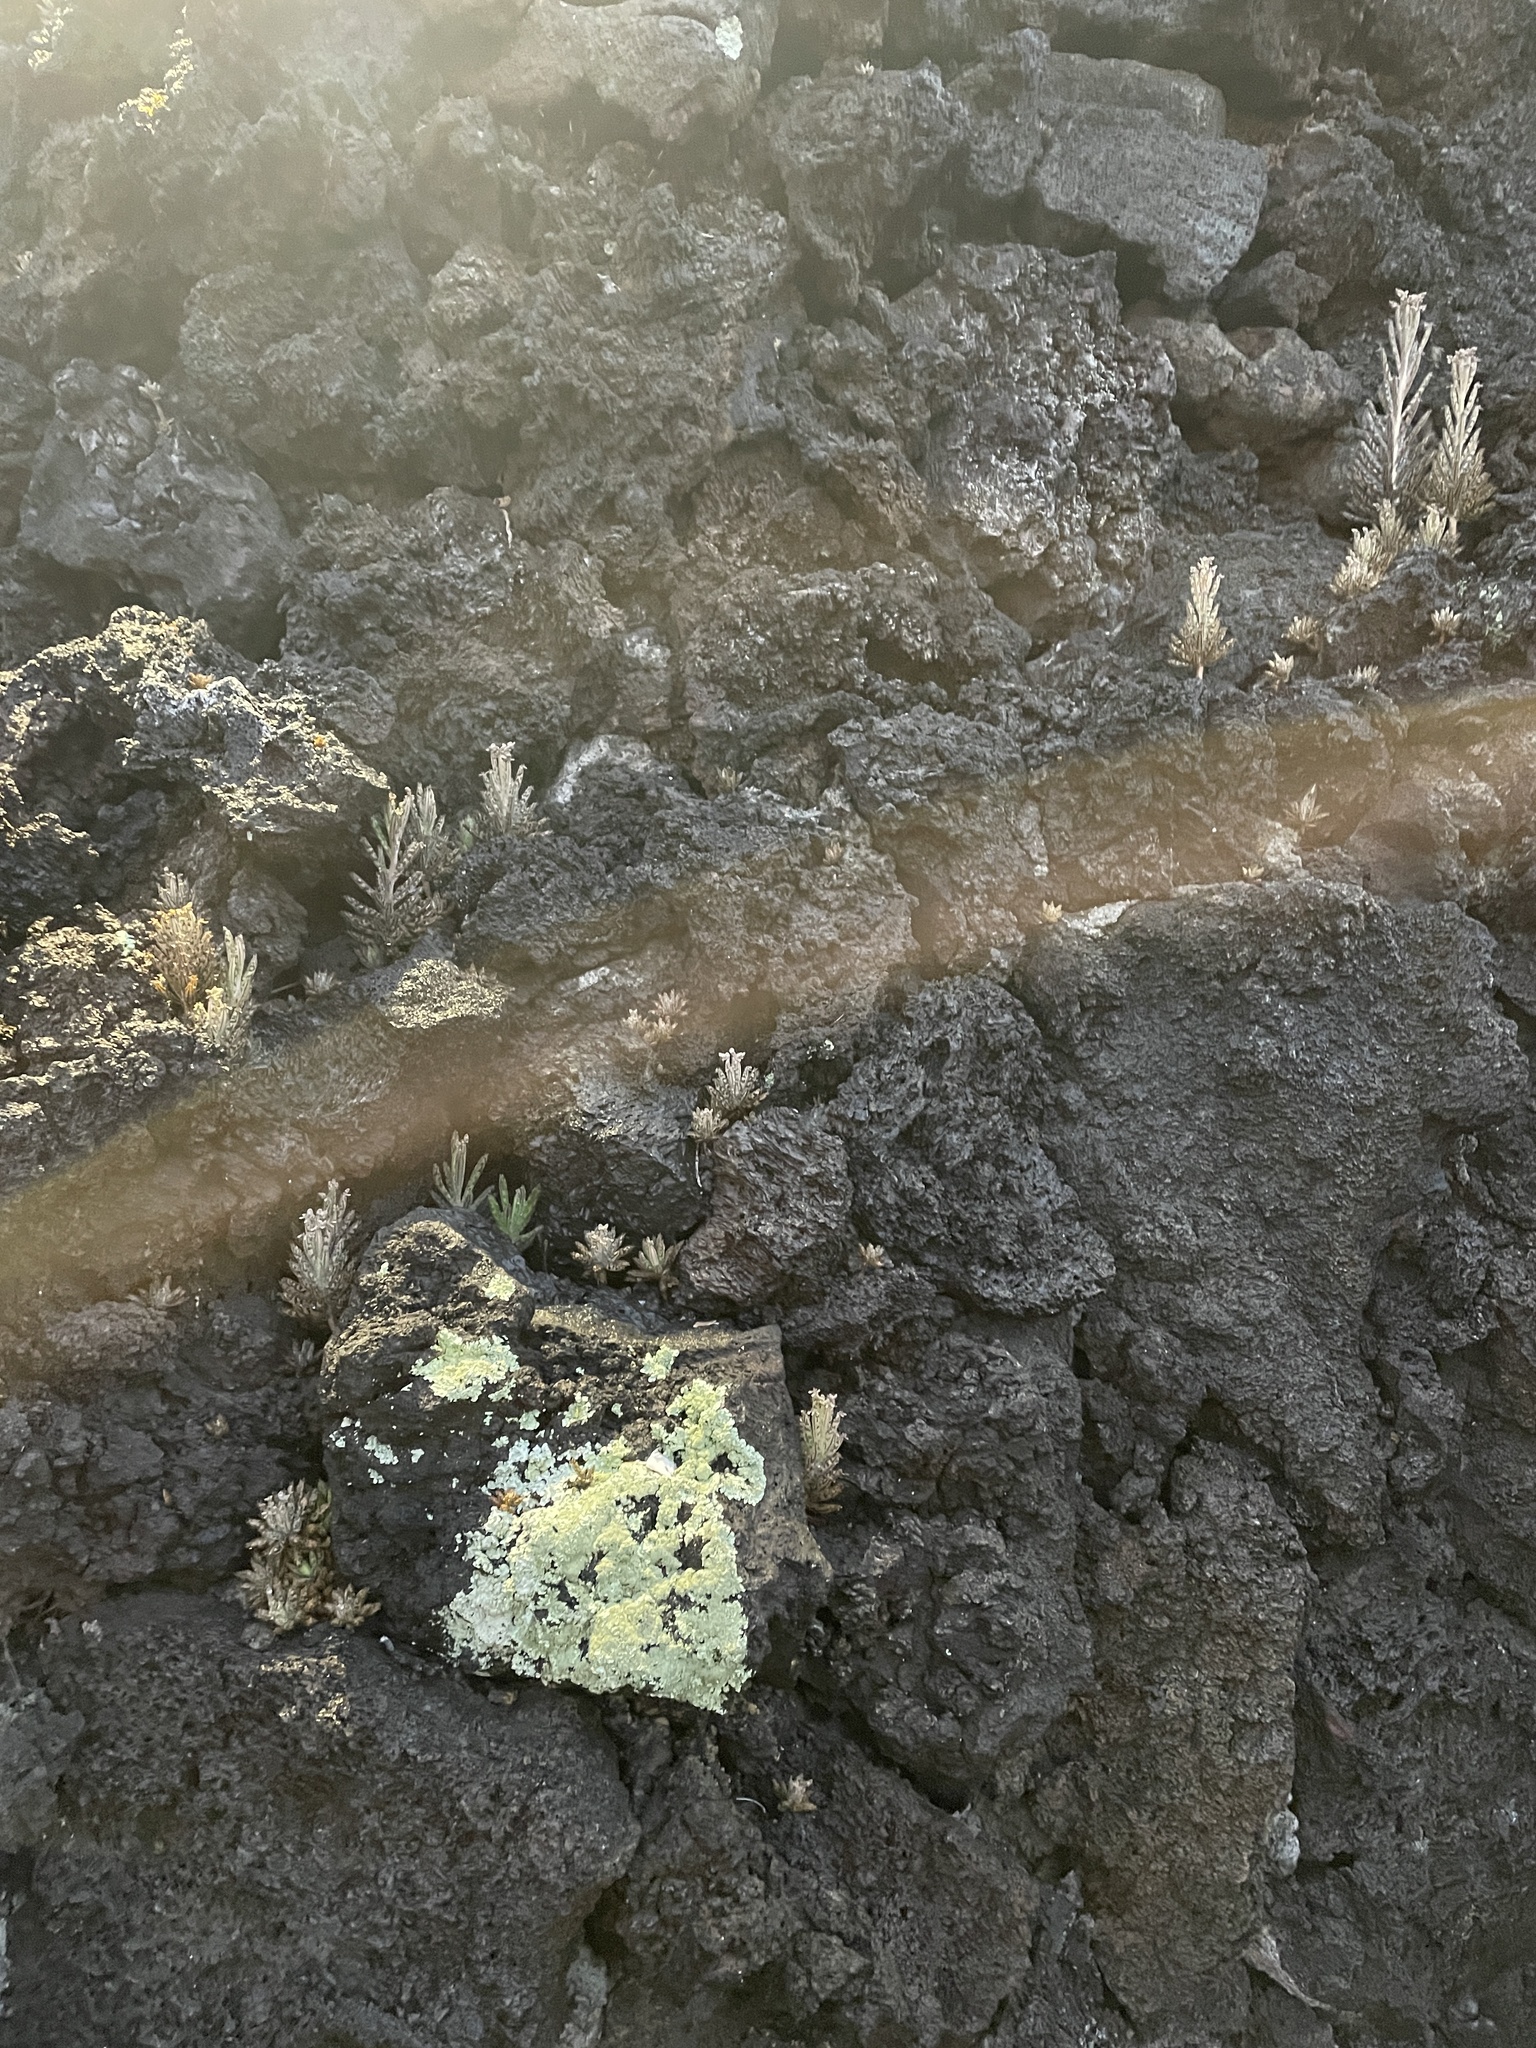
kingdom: Plantae
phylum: Tracheophyta
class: Magnoliopsida
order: Saxifragales
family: Crassulaceae
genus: Kalanchoe
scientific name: Kalanchoe delagoensis
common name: Chandelier plant
